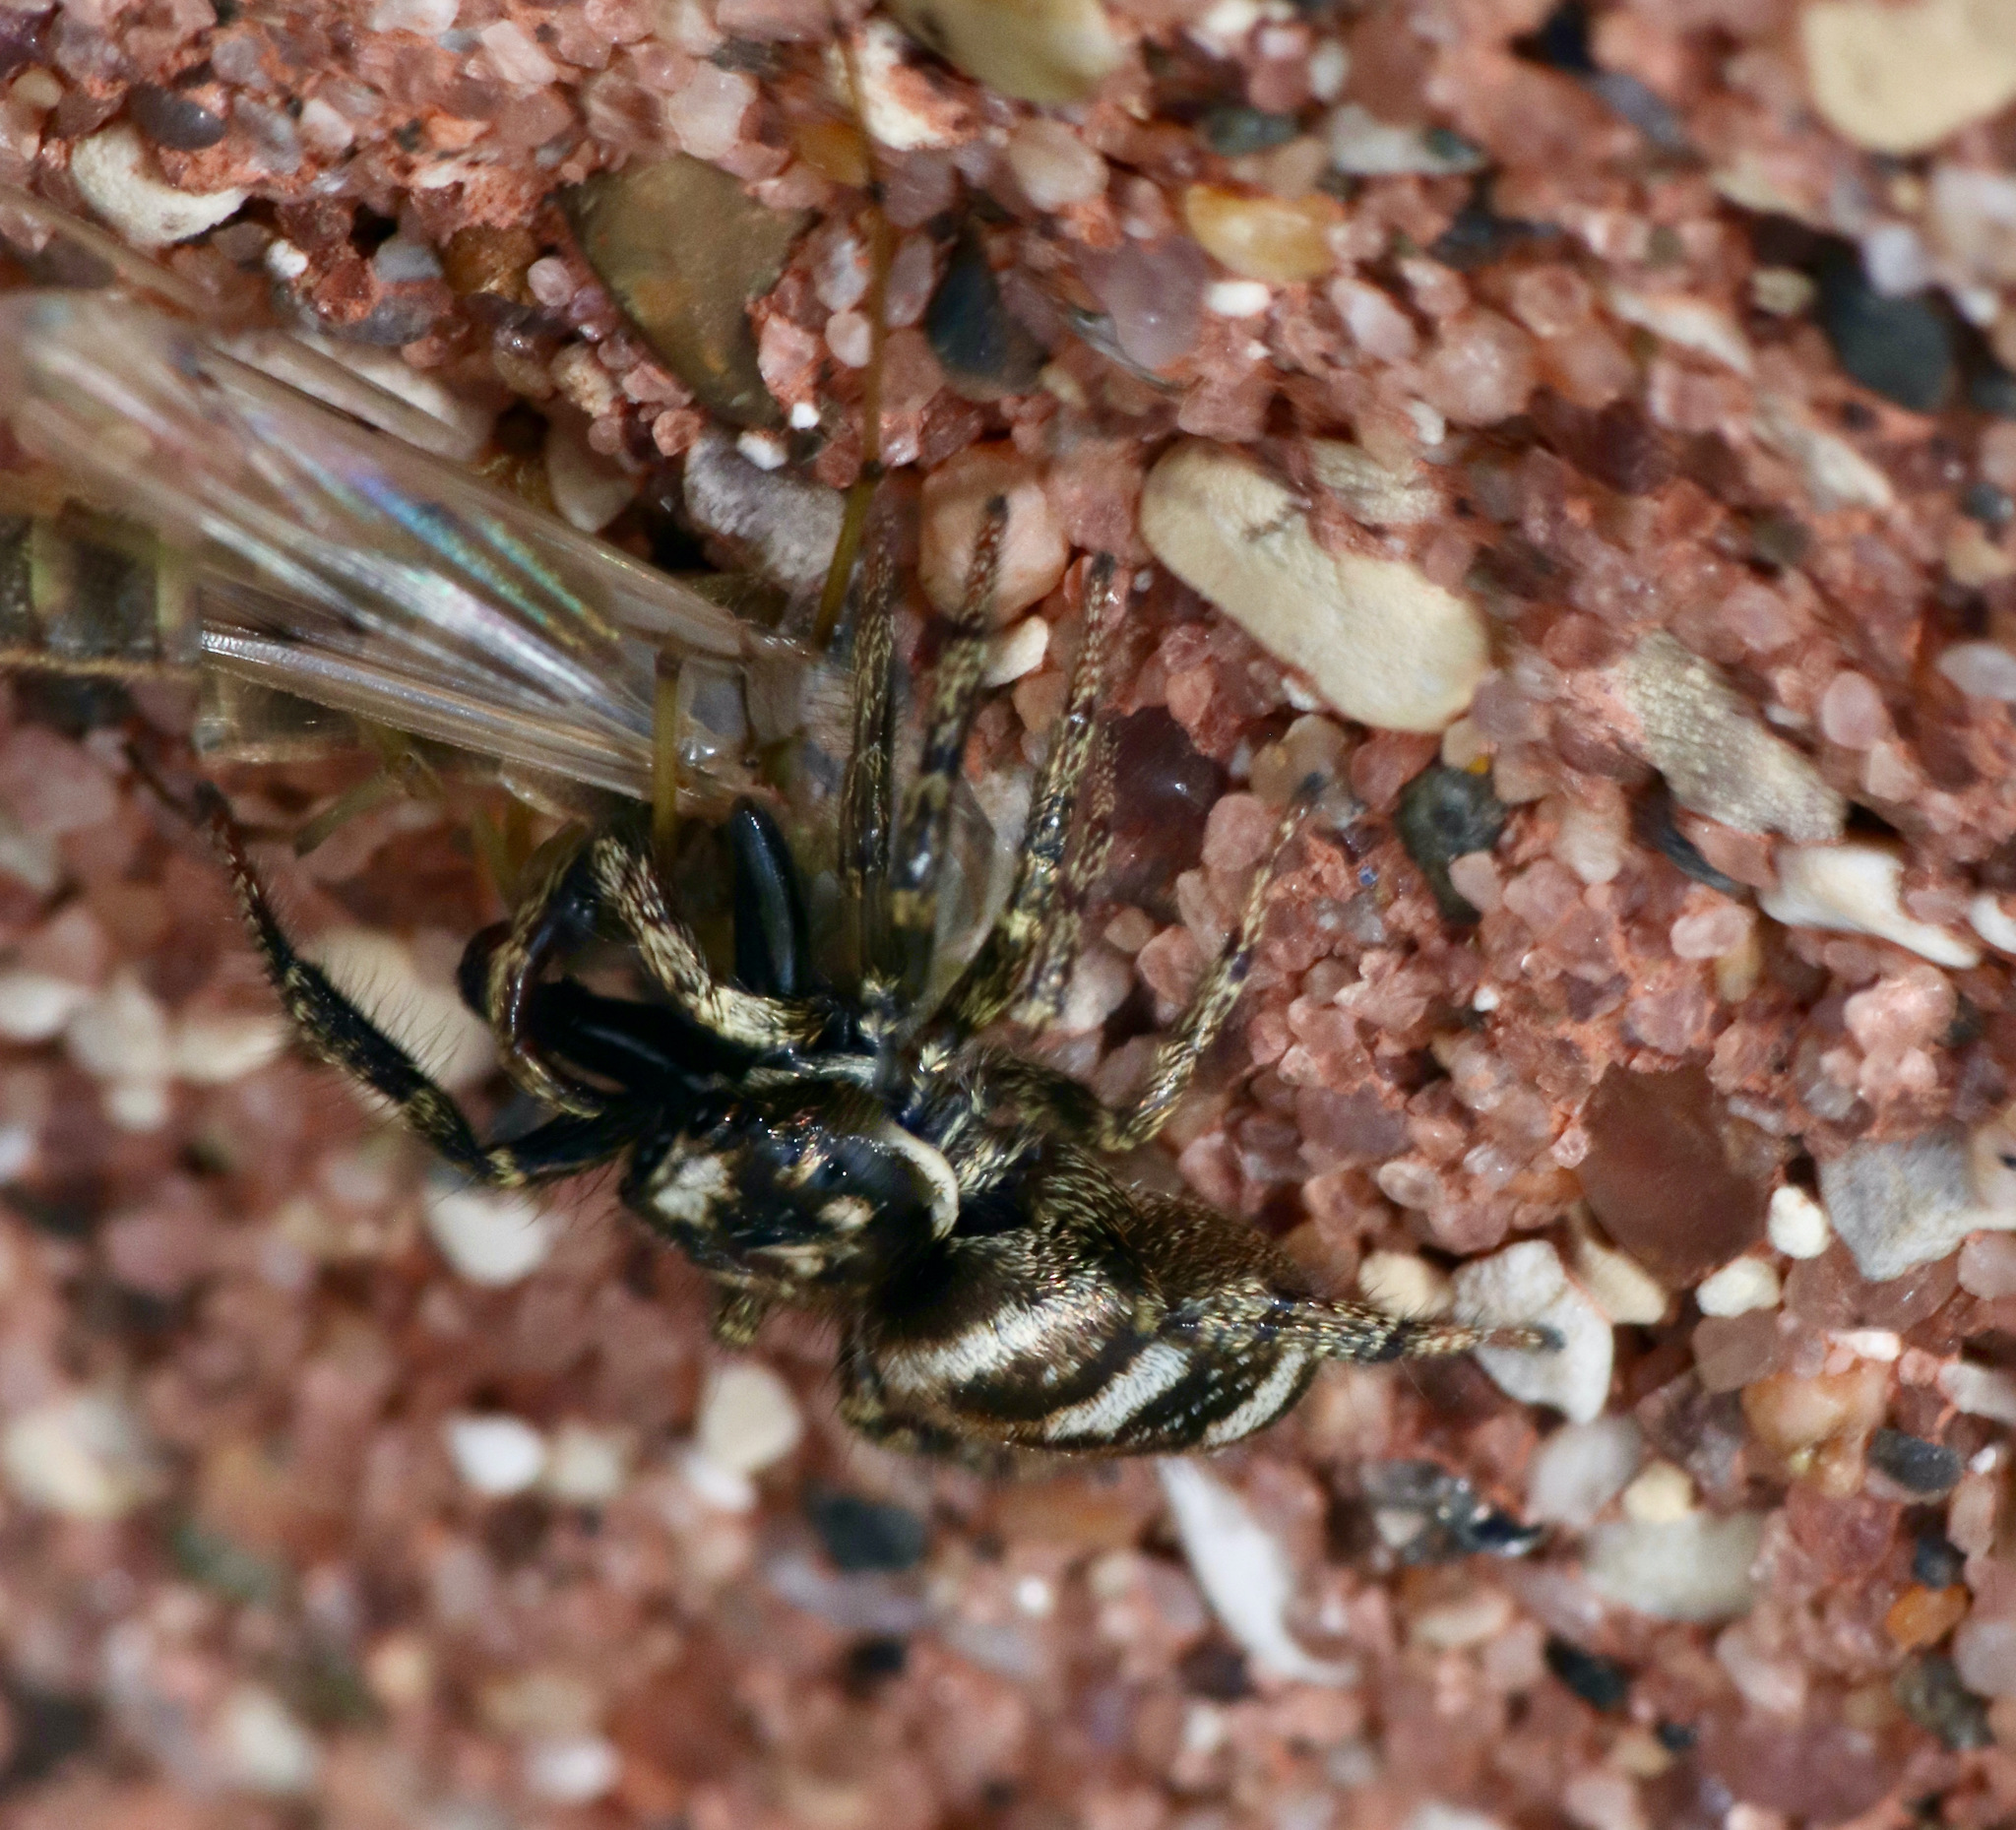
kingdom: Animalia
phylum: Arthropoda
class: Arachnida
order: Araneae
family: Salticidae
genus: Salticus
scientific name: Salticus scenicus
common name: Zebra jumper
